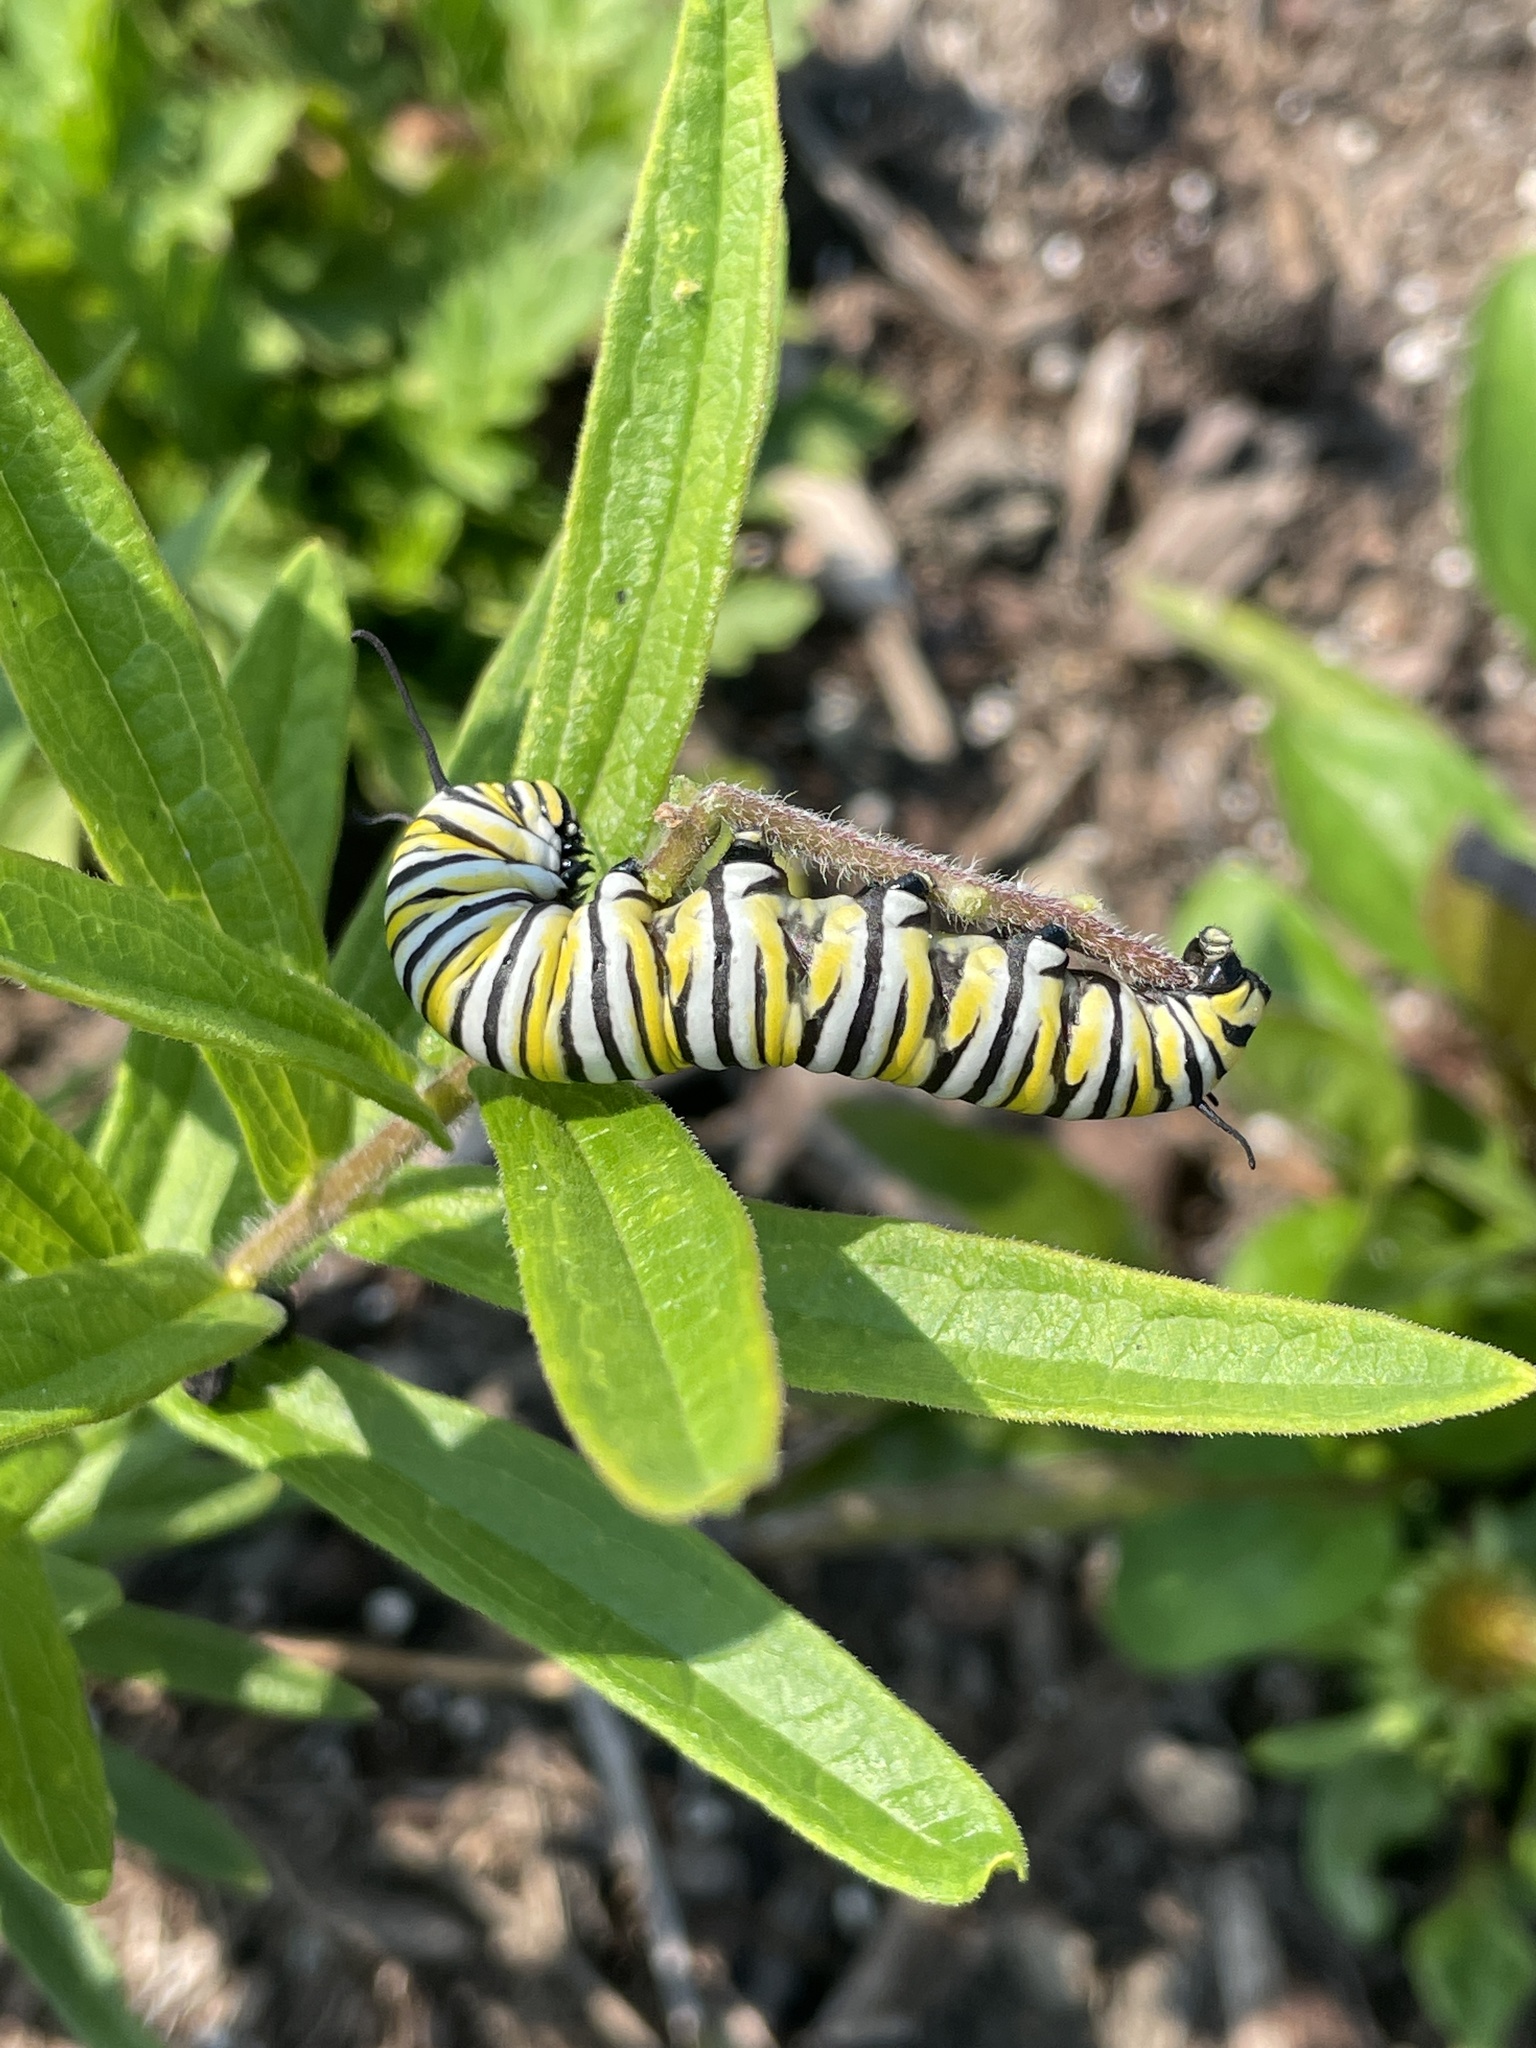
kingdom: Animalia
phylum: Arthropoda
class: Insecta
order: Lepidoptera
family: Nymphalidae
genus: Danaus
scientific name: Danaus plexippus
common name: Monarch
